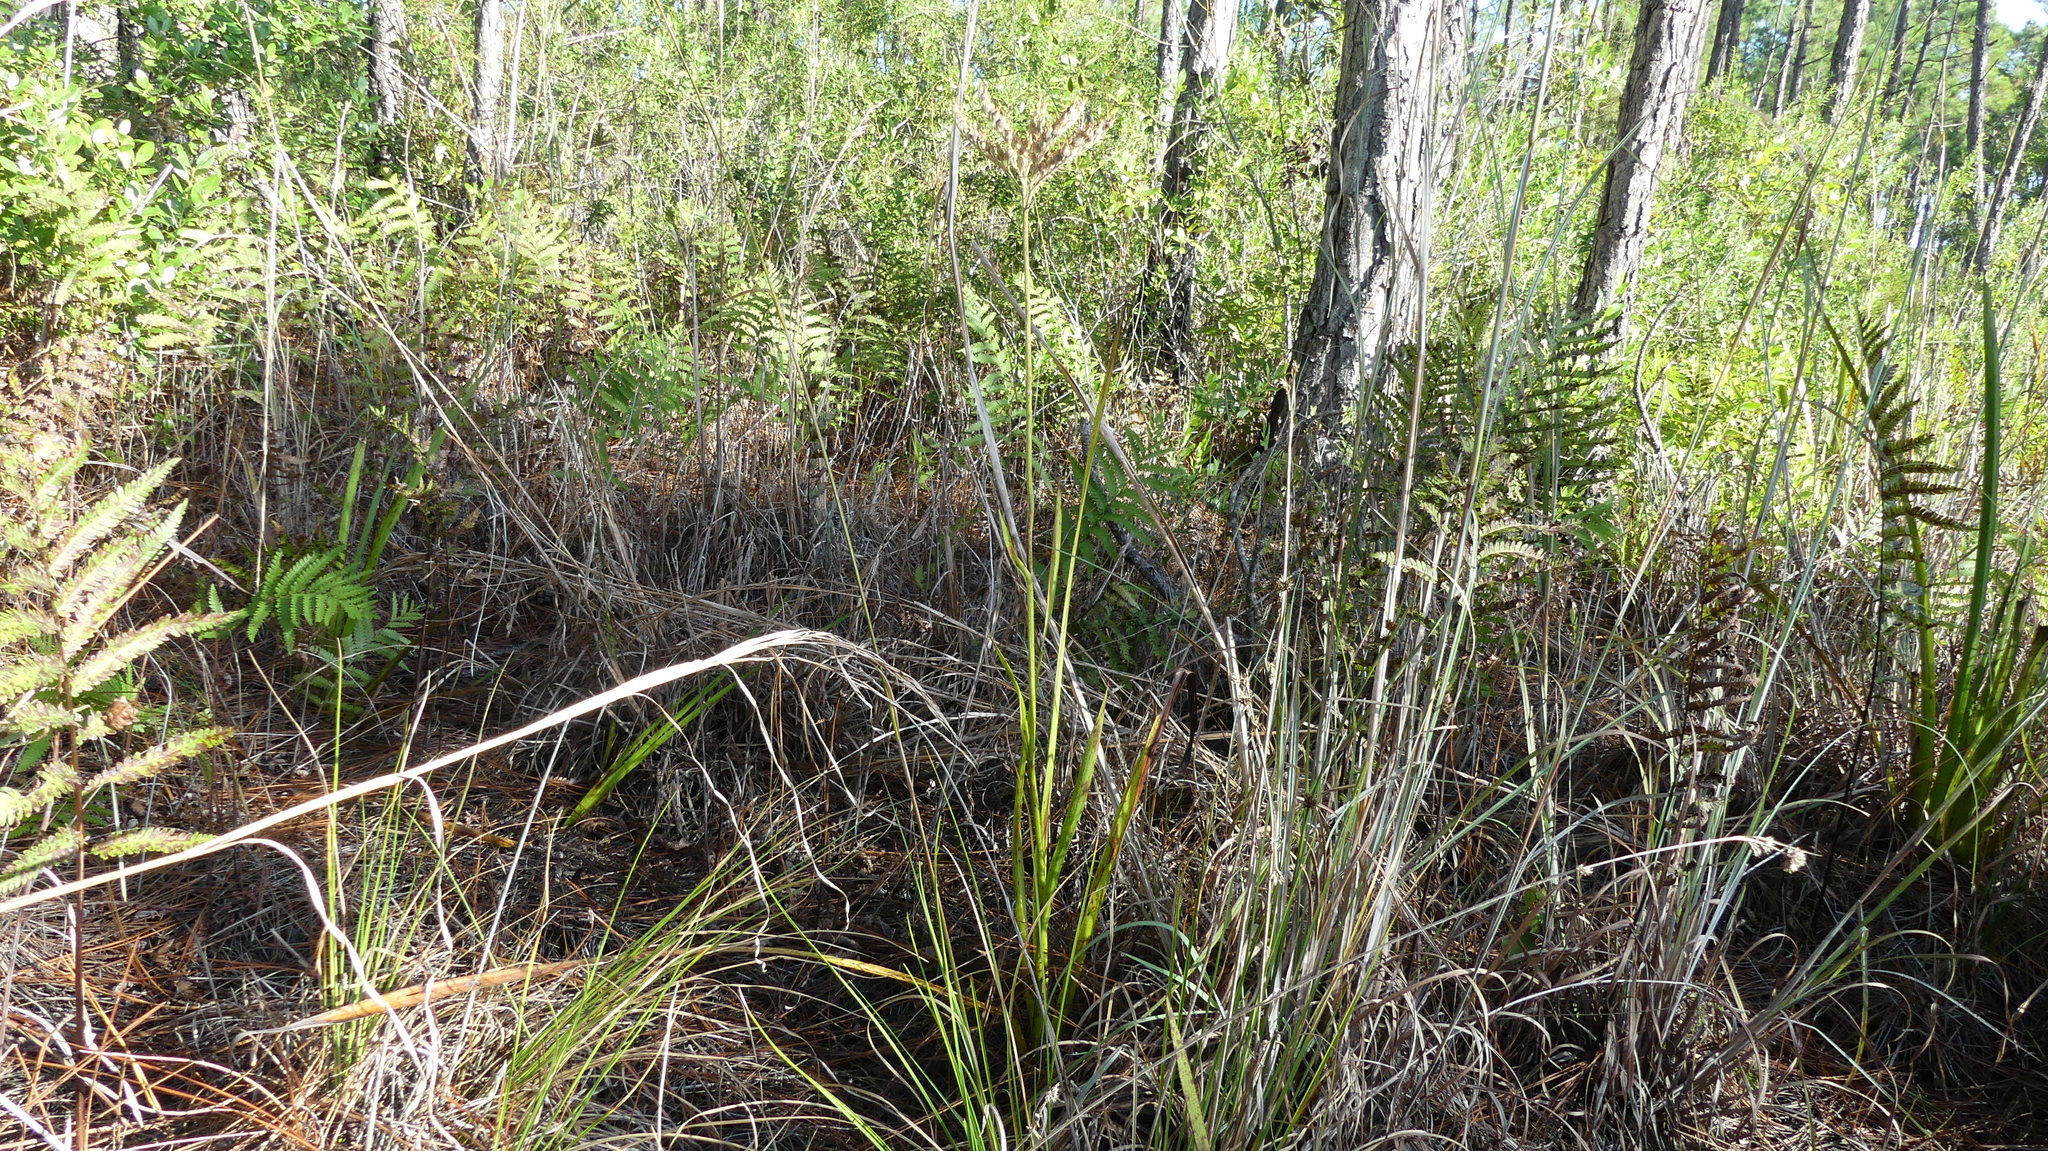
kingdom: Plantae
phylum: Tracheophyta
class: Liliopsida
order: Commelinales
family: Haemodoraceae
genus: Lachnanthes
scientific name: Lachnanthes caroliana
